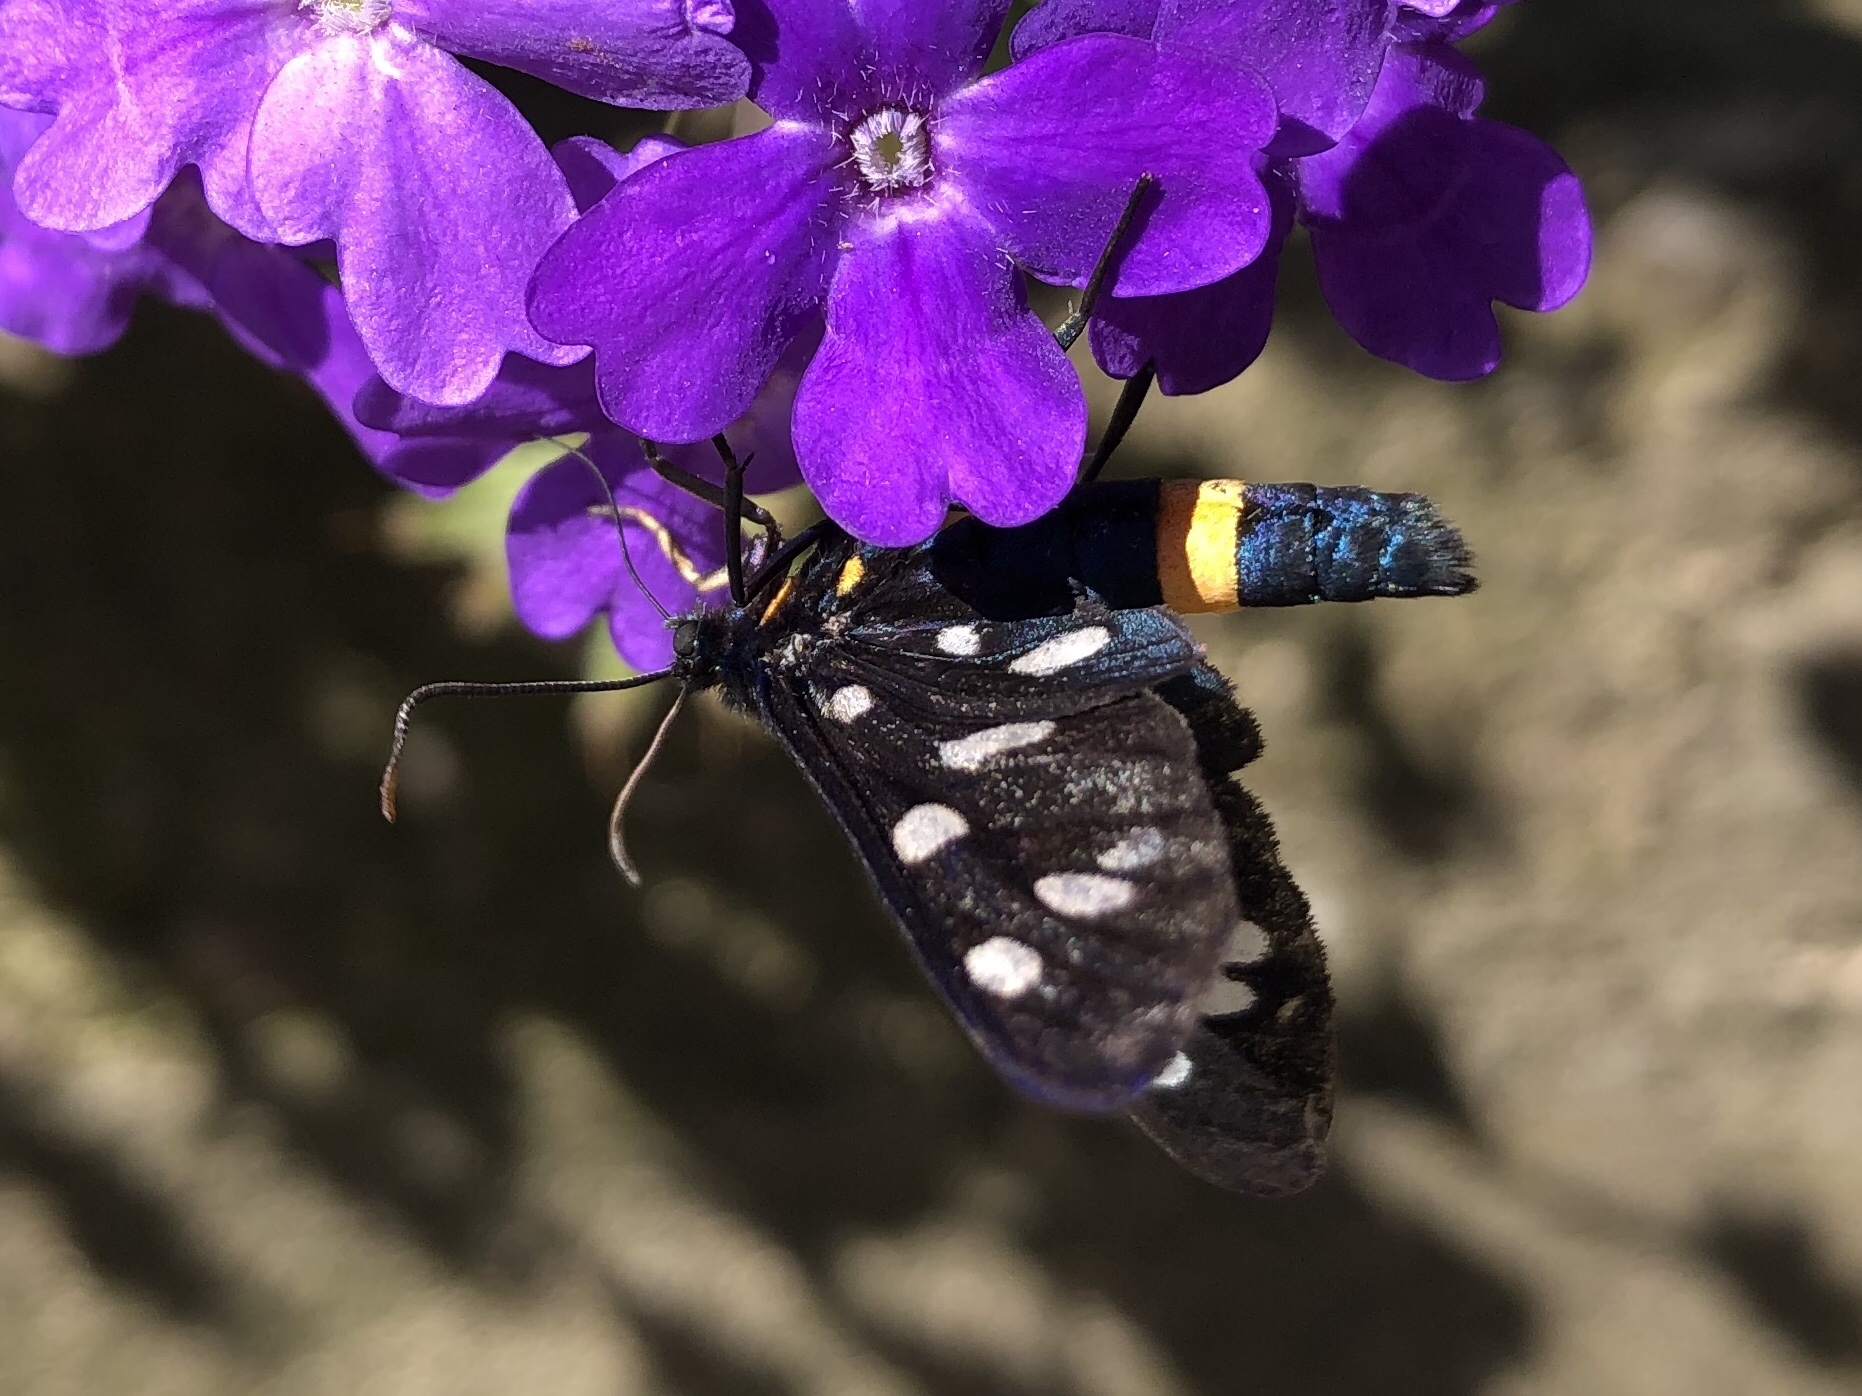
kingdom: Animalia
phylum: Arthropoda
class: Insecta
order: Lepidoptera
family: Erebidae
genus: Amata
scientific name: Amata phegea
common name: Nine-spotted
